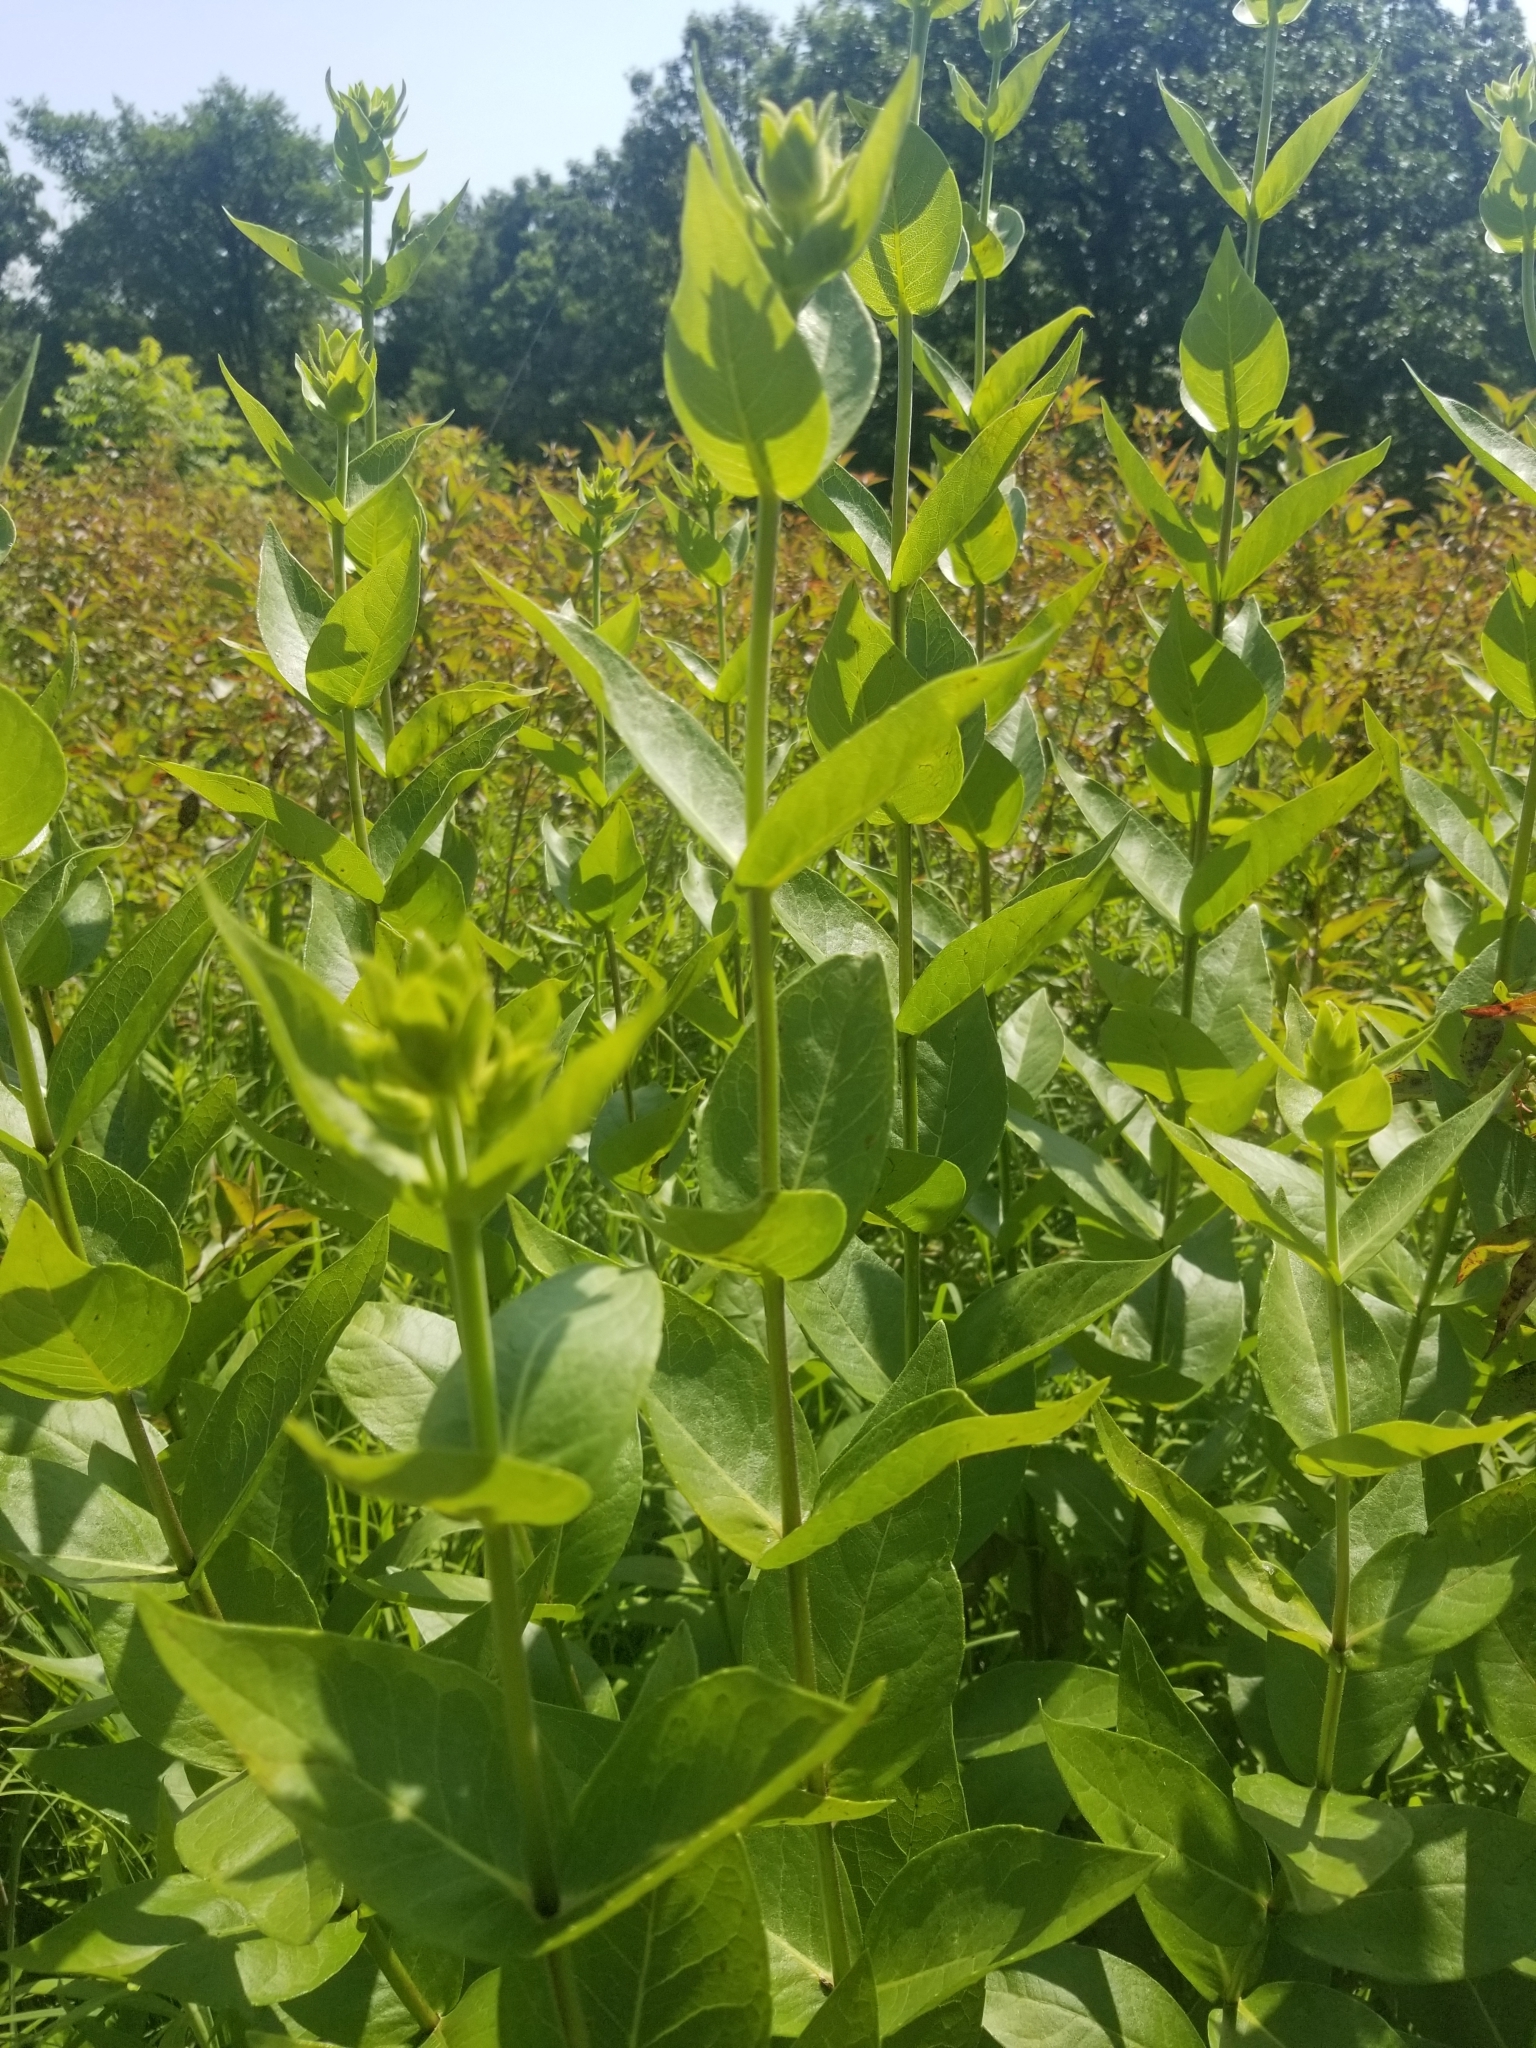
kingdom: Plantae
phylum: Tracheophyta
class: Magnoliopsida
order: Asterales
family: Asteraceae
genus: Silphium
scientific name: Silphium integrifolium
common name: Whole-leaf rosinweed
